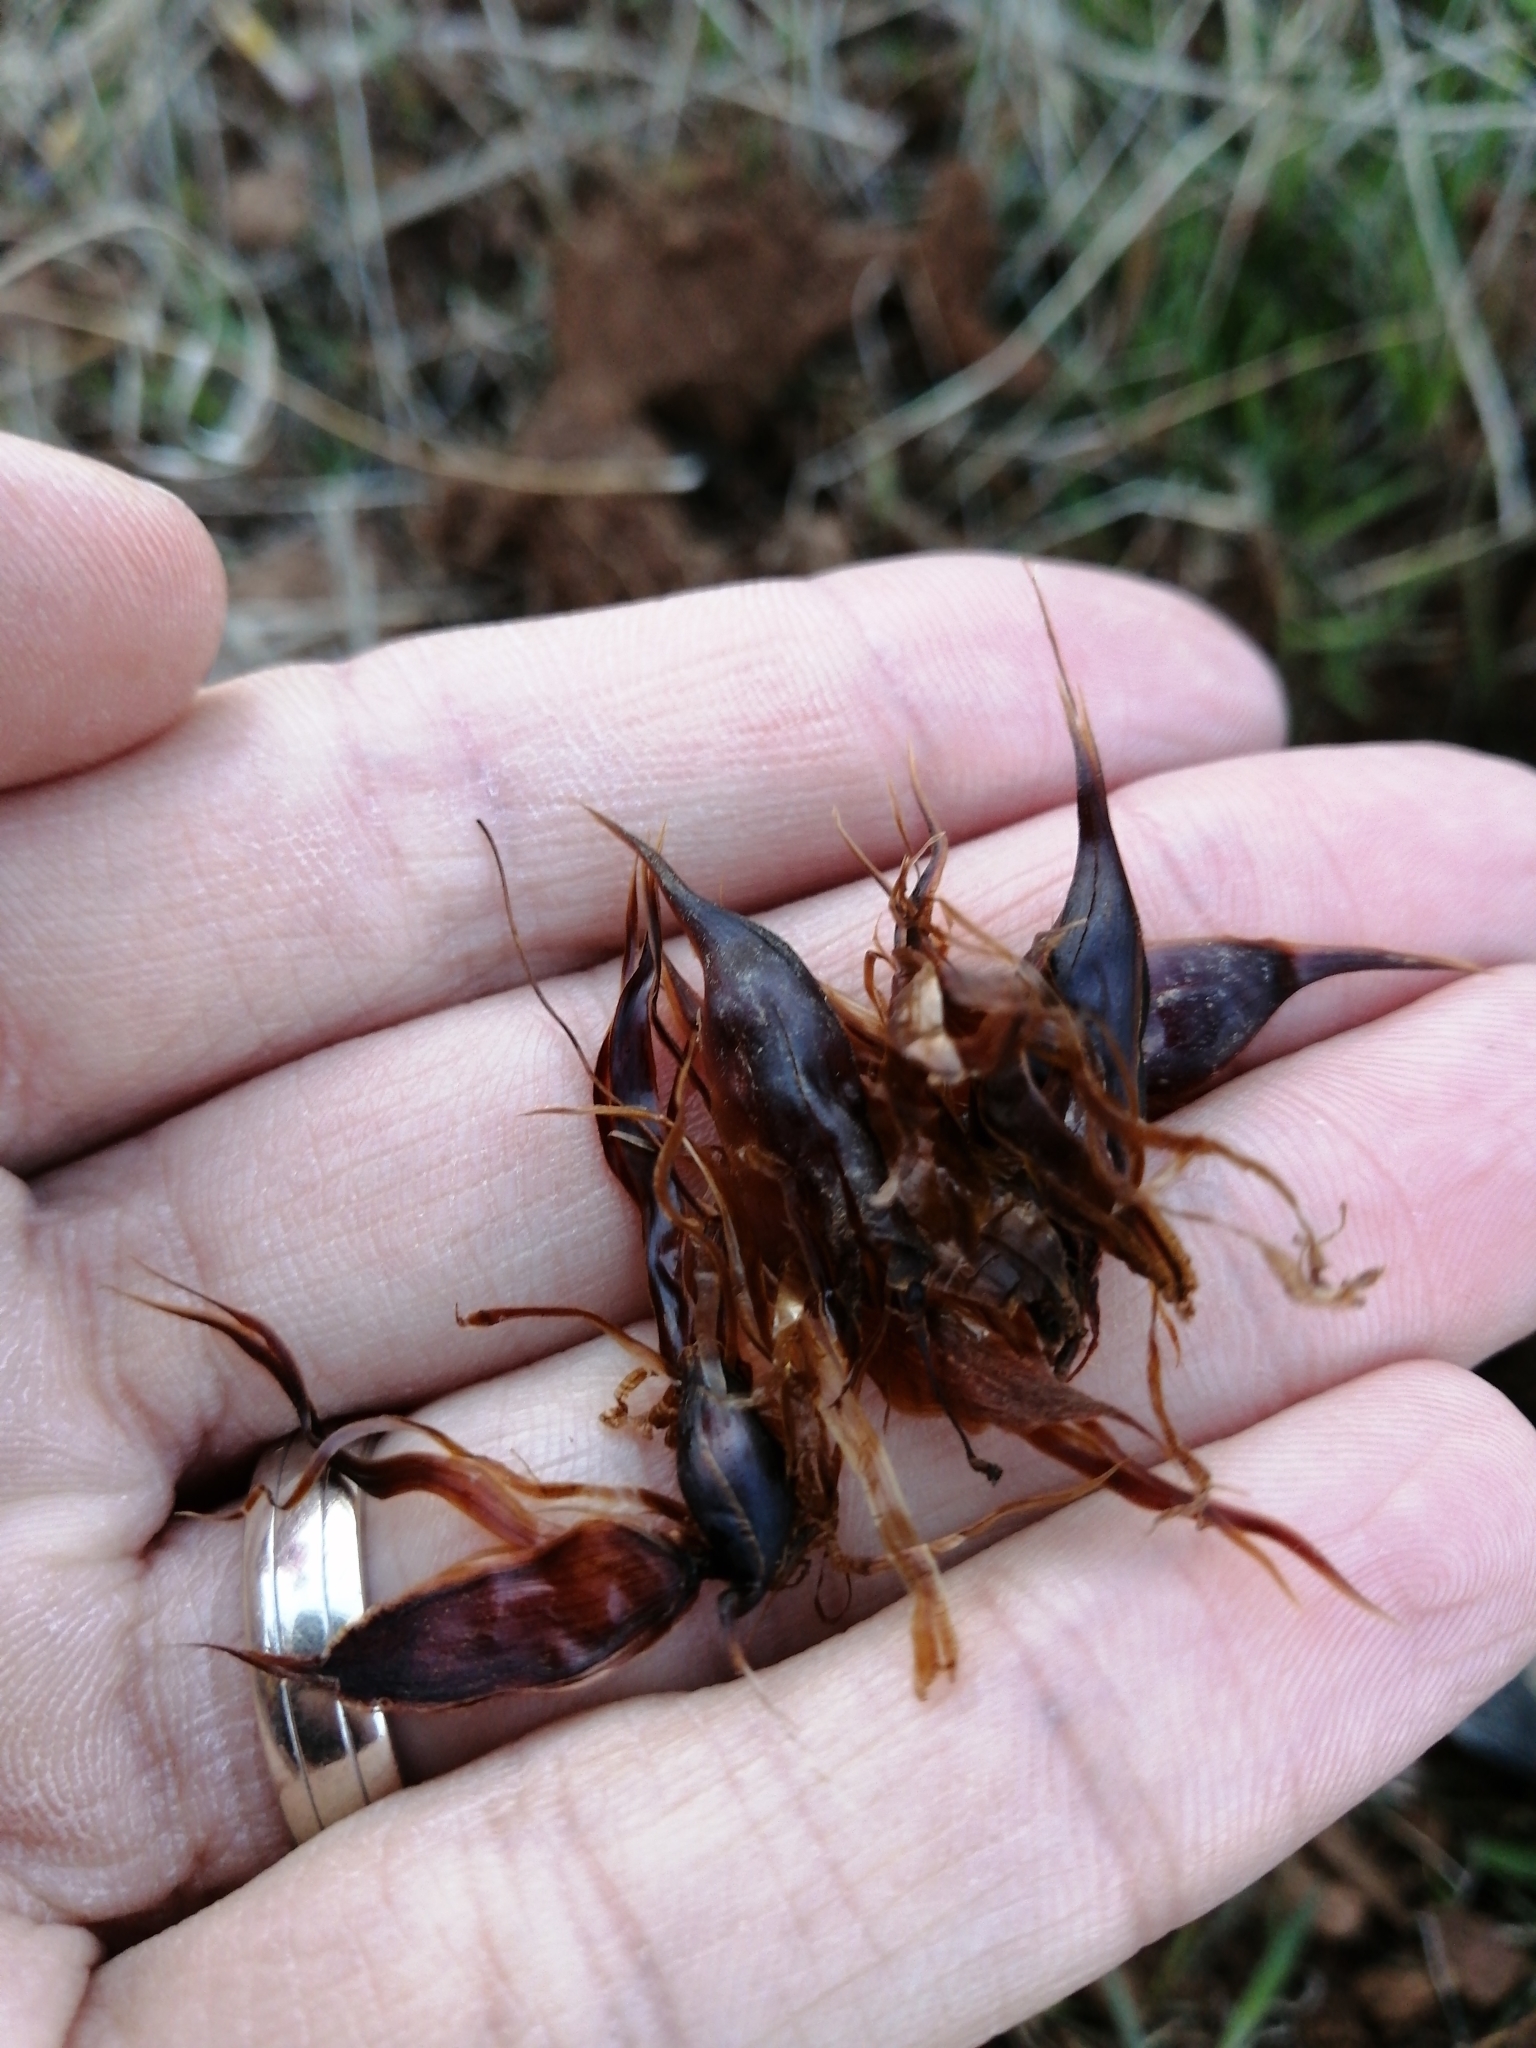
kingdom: Plantae
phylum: Tracheophyta
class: Magnoliopsida
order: Oxalidales
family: Oxalidaceae
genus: Oxalis
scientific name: Oxalis leptogramma
